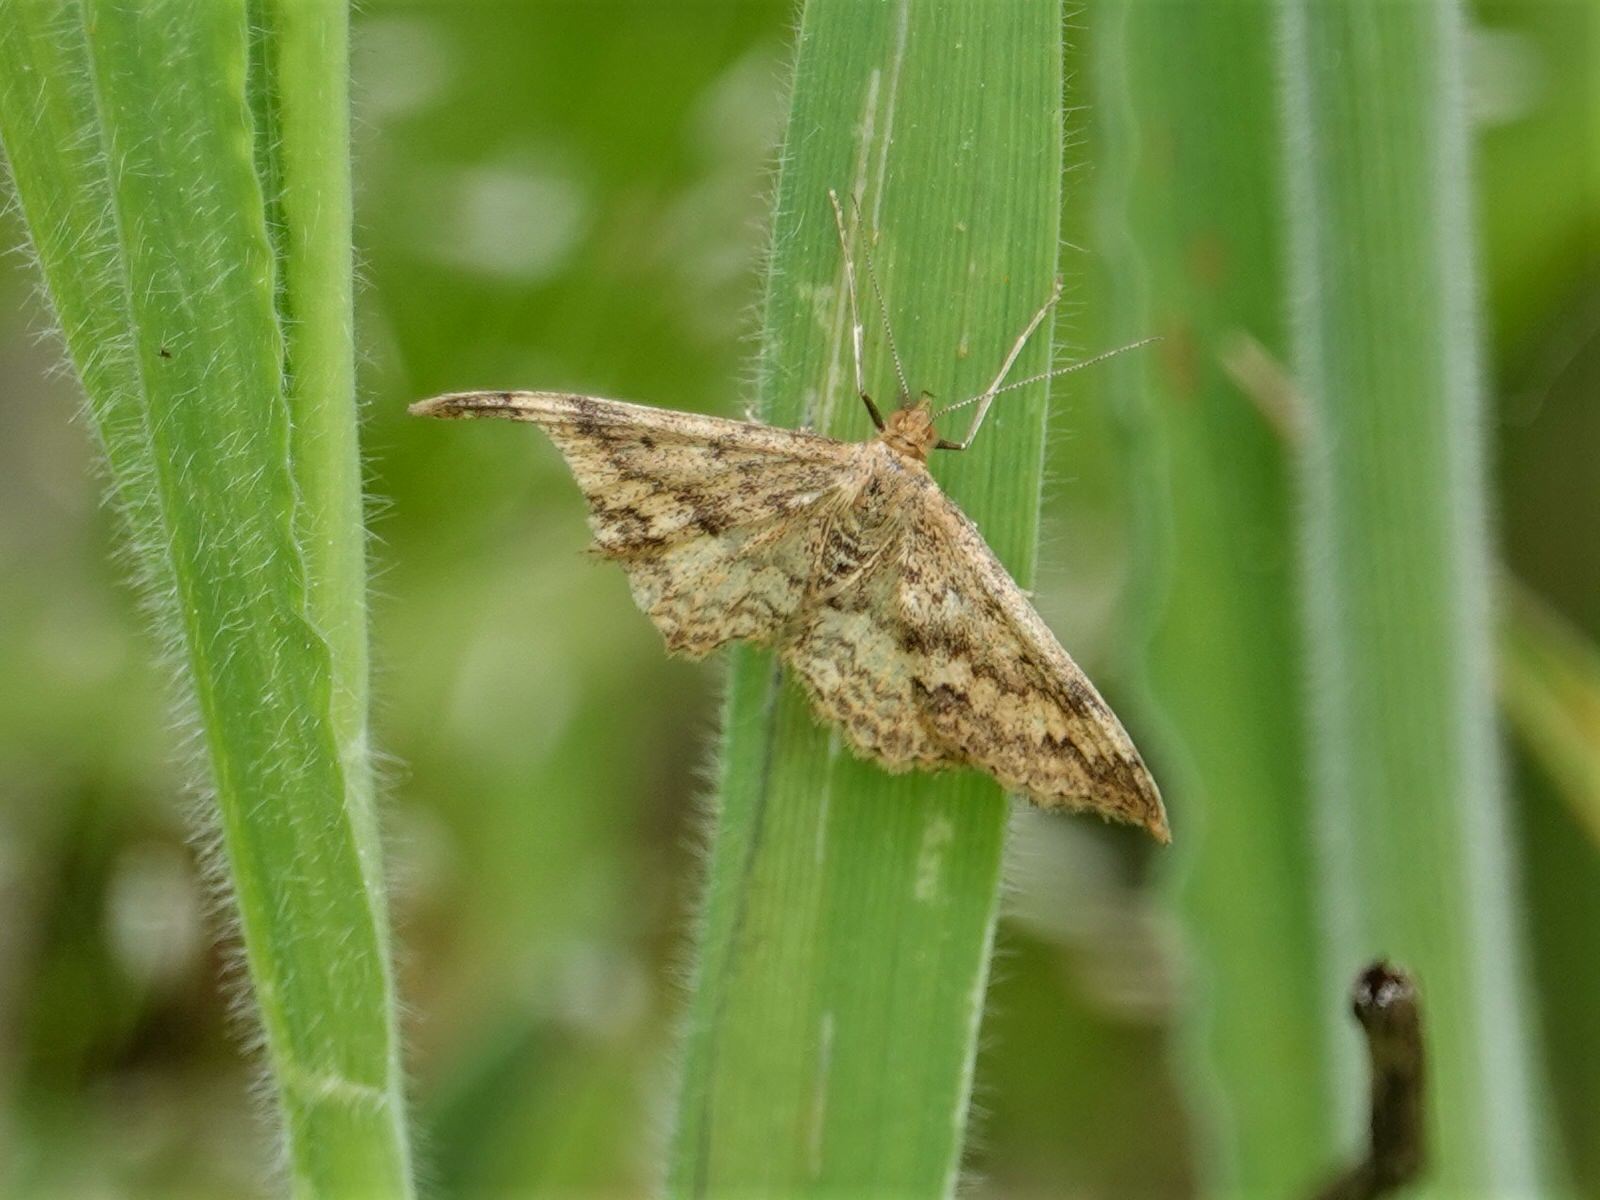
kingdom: Animalia
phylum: Arthropoda
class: Insecta
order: Lepidoptera
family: Geometridae
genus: Scopula
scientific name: Scopula rubraria
